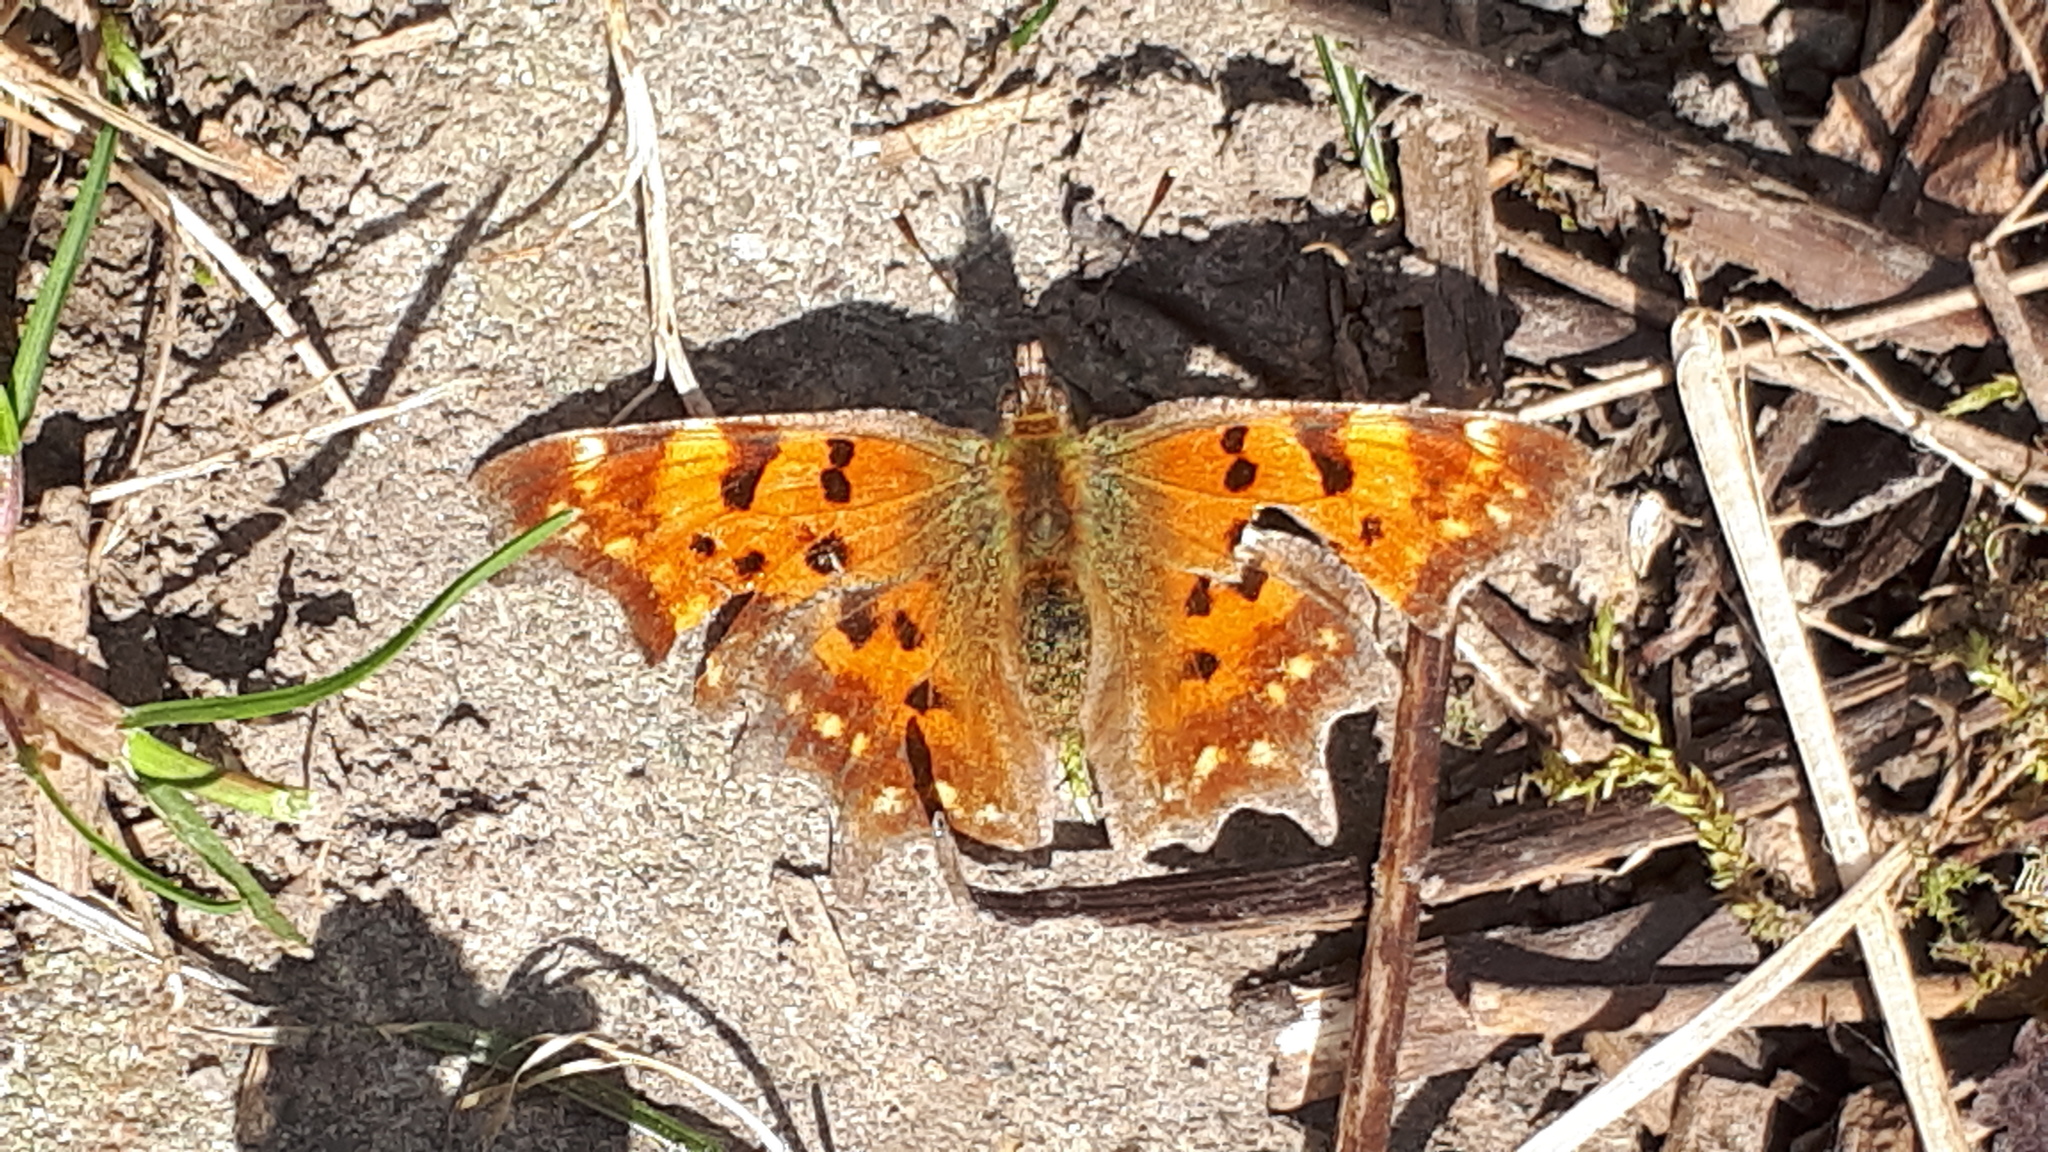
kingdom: Animalia
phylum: Arthropoda
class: Insecta
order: Lepidoptera
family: Nymphalidae
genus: Polygonia
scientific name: Polygonia c-album
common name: Comma
